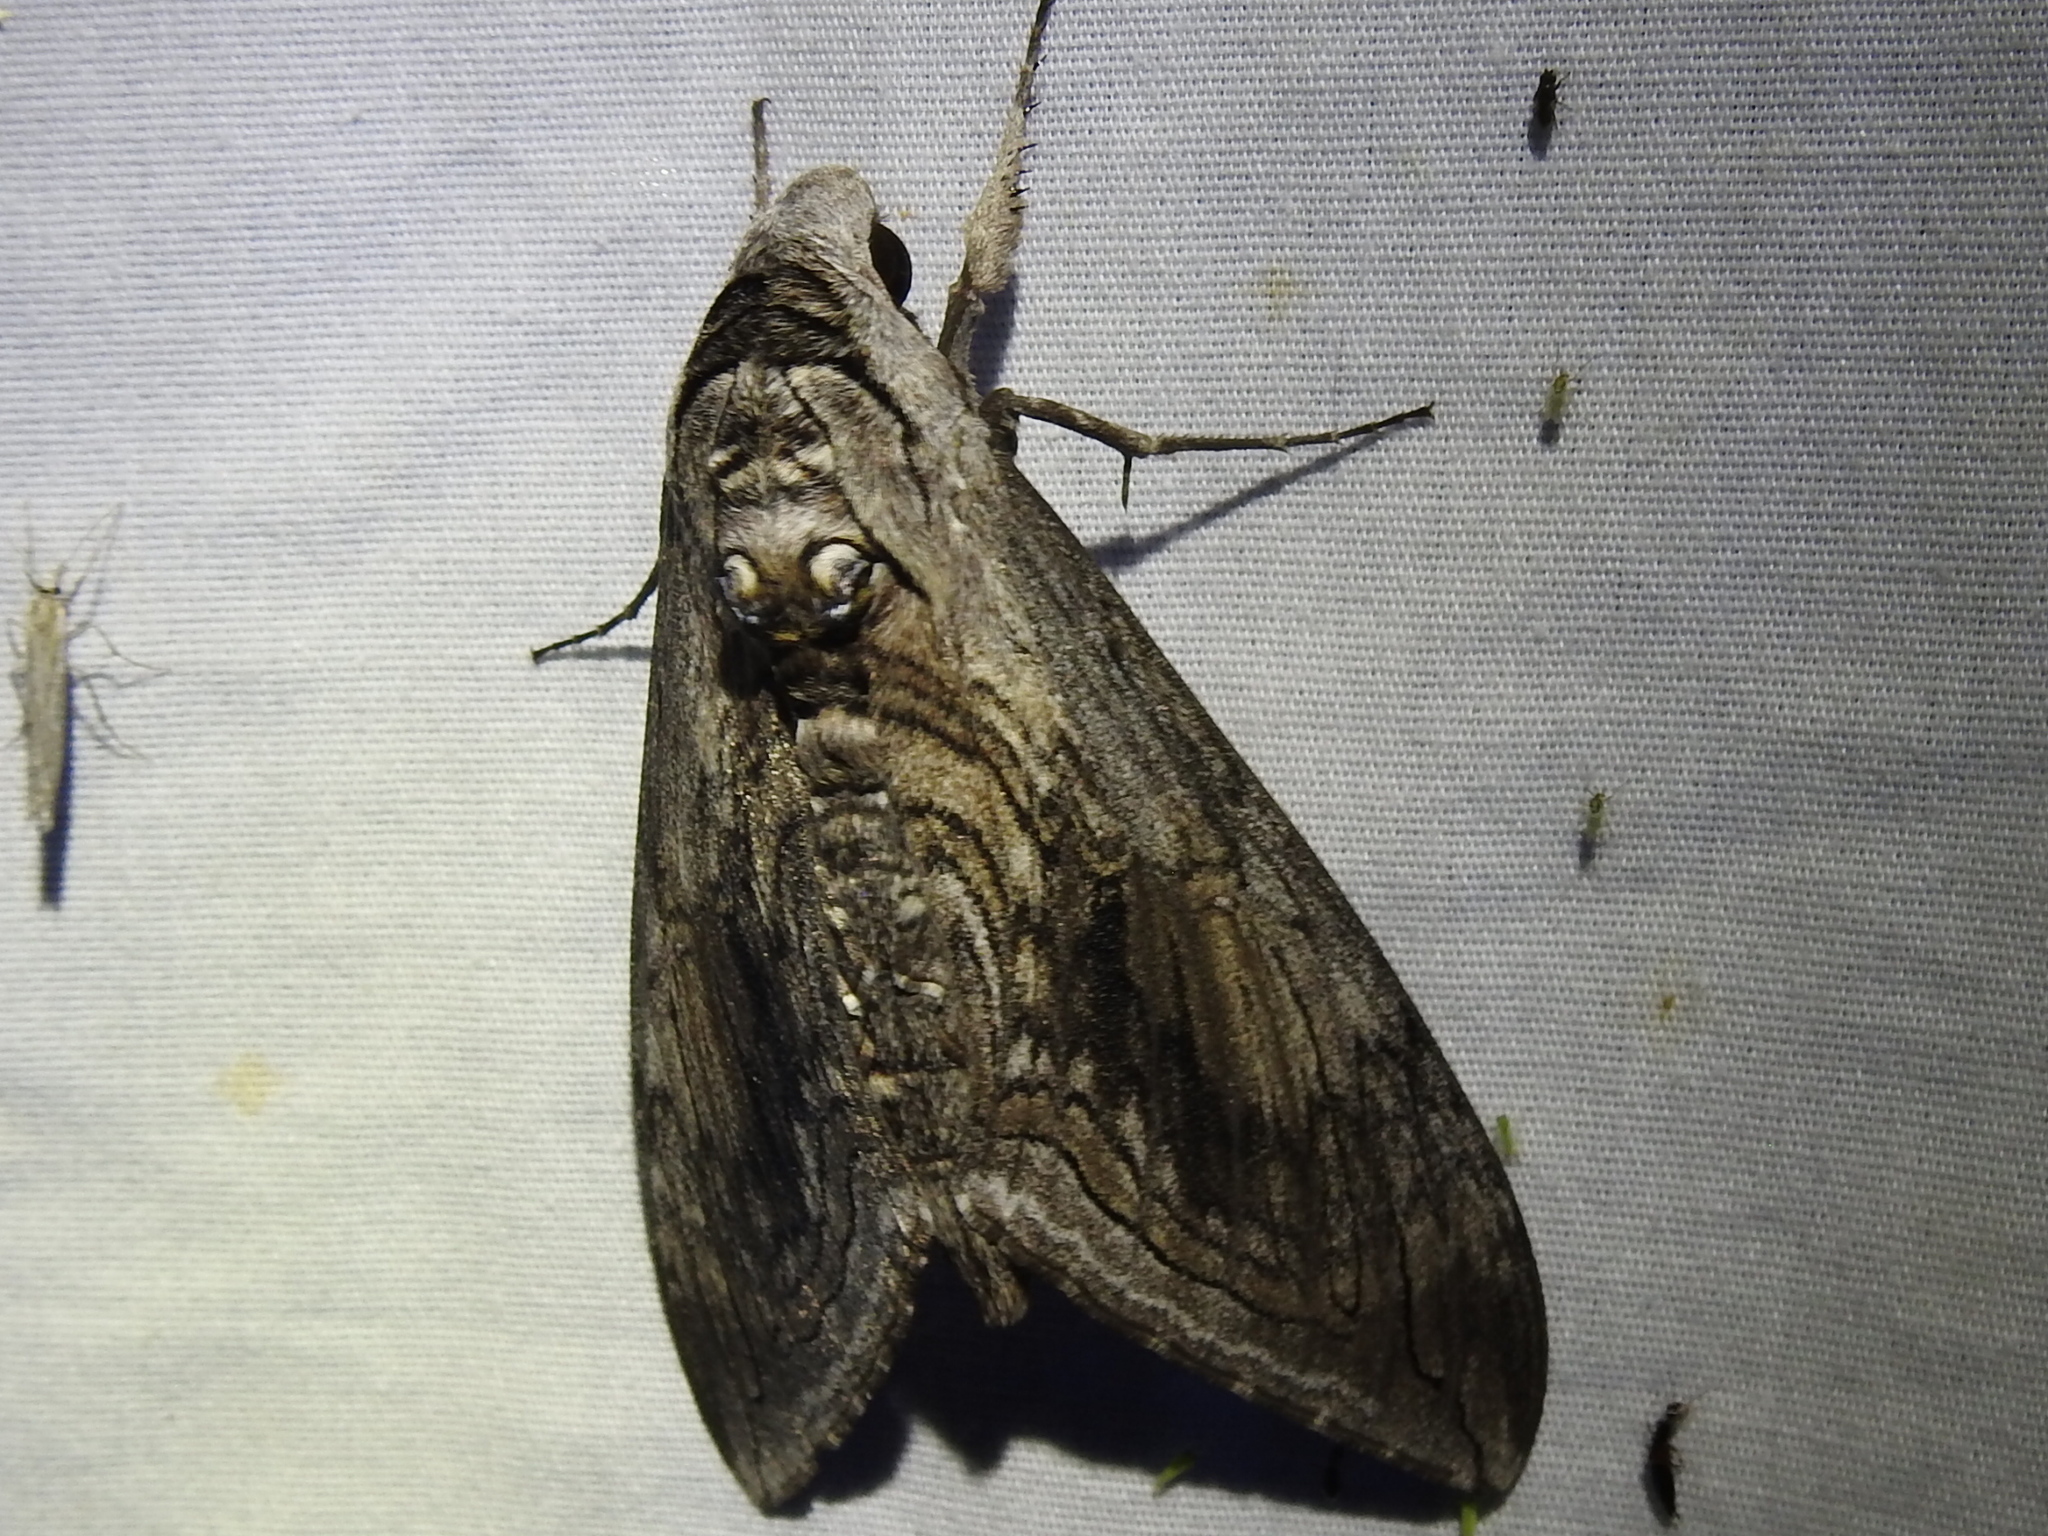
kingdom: Animalia
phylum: Arthropoda
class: Insecta
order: Lepidoptera
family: Sphingidae
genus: Manduca
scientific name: Manduca quinquemaculatus
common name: Five-spotted hawk-moth
